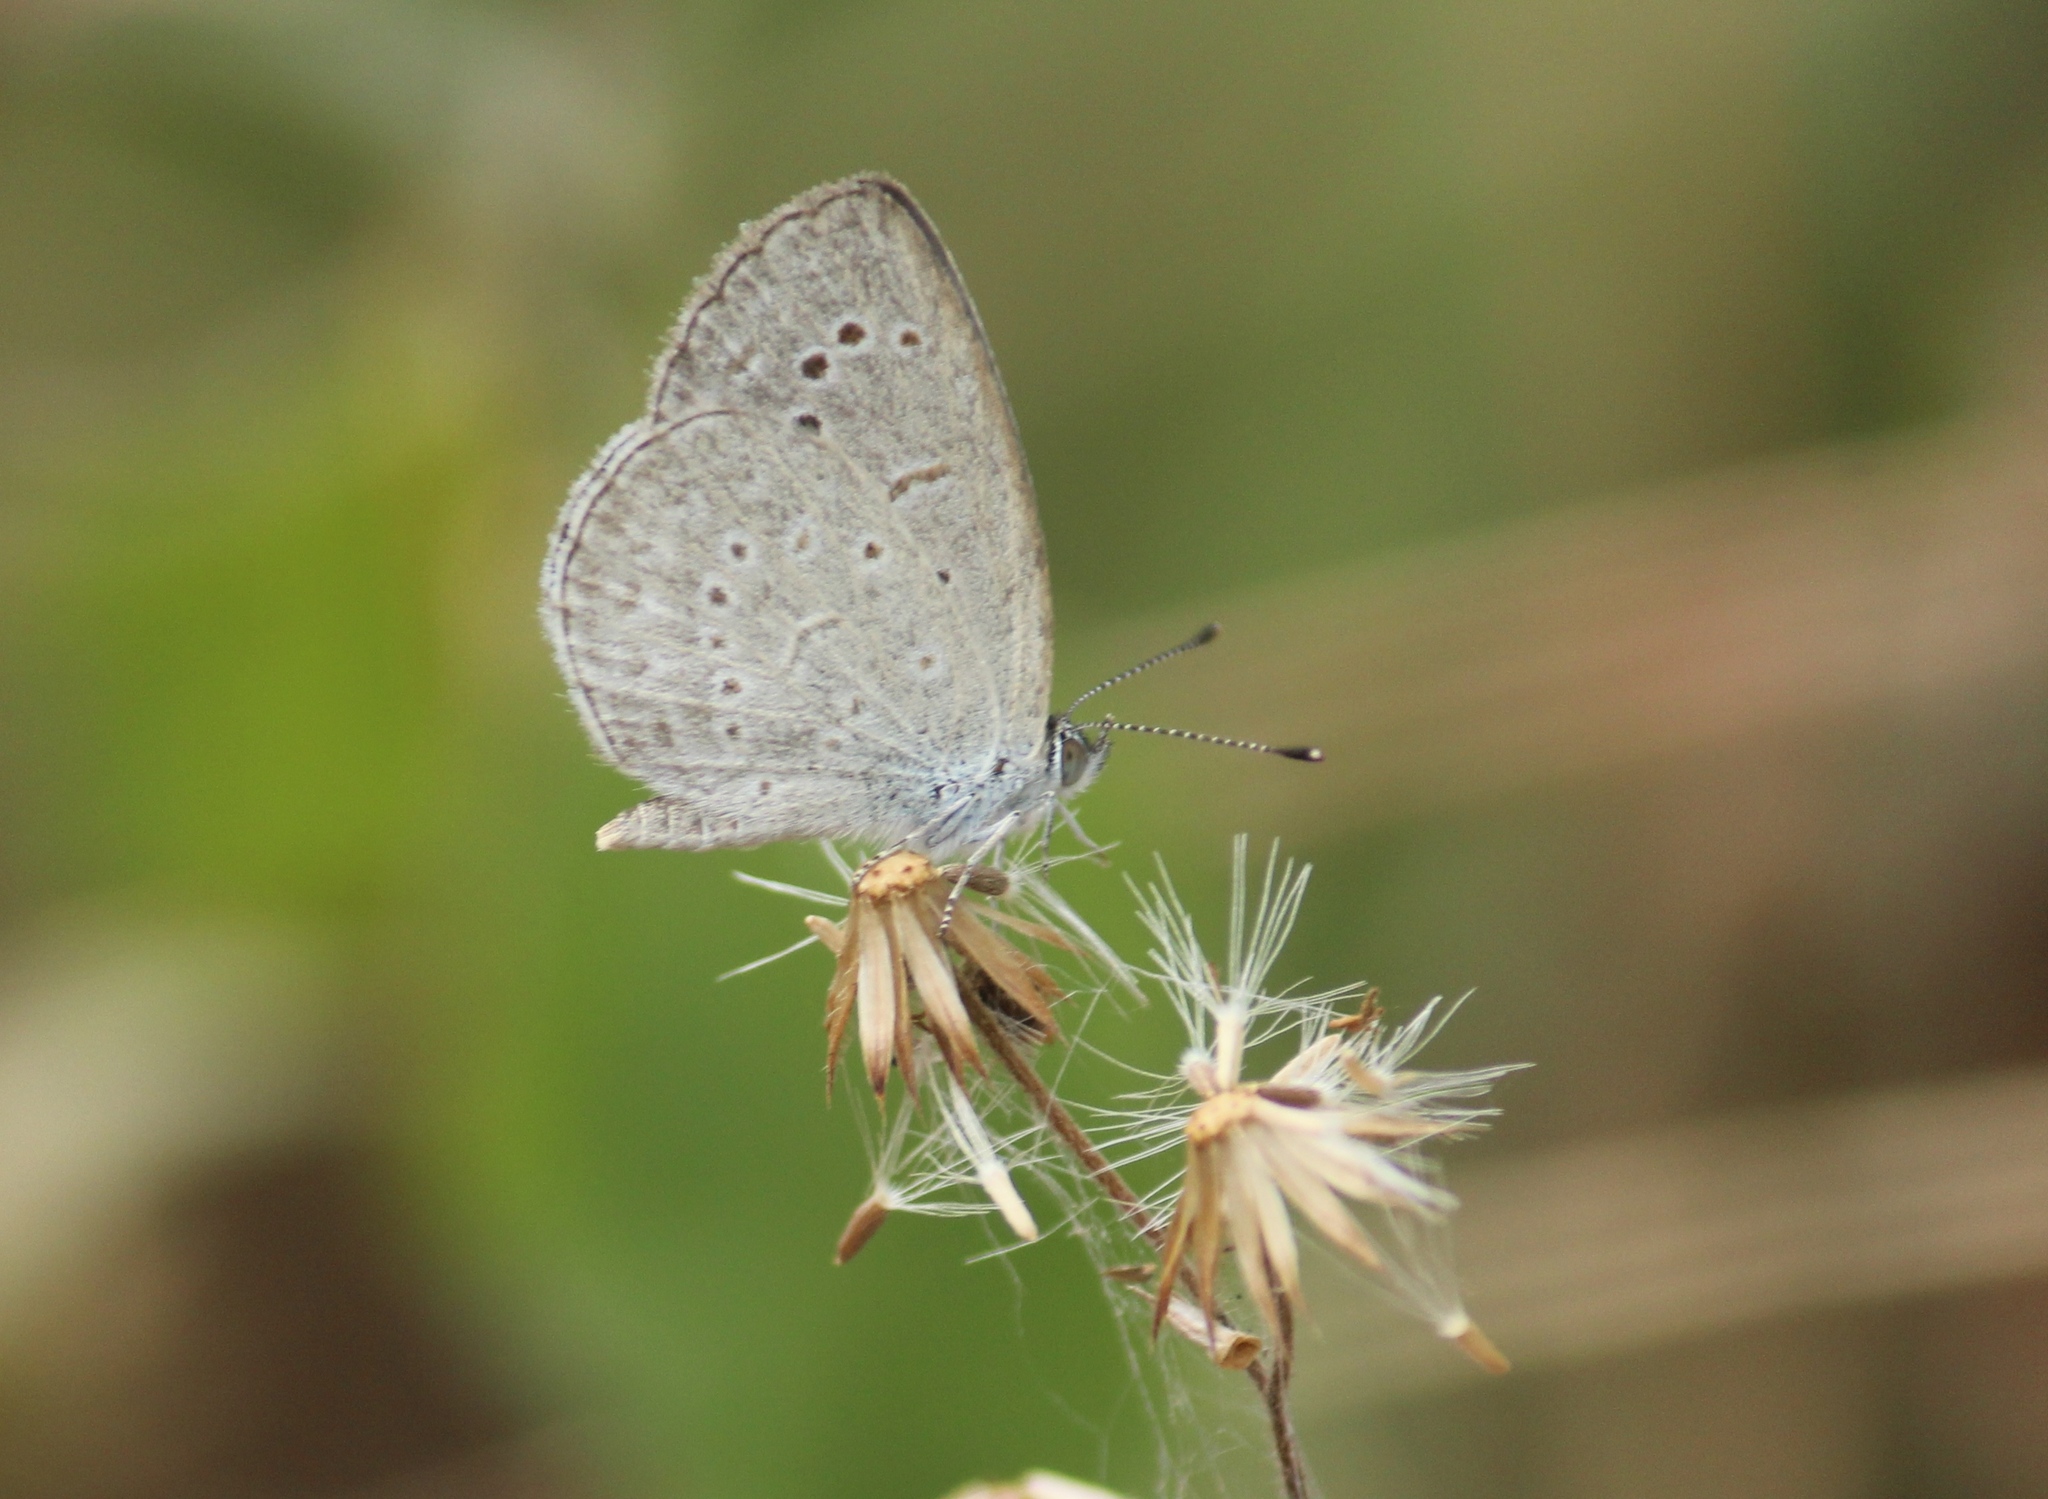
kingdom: Animalia
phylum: Arthropoda
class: Insecta
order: Lepidoptera
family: Lycaenidae
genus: Pseudozizeeria
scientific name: Pseudozizeeria maha
